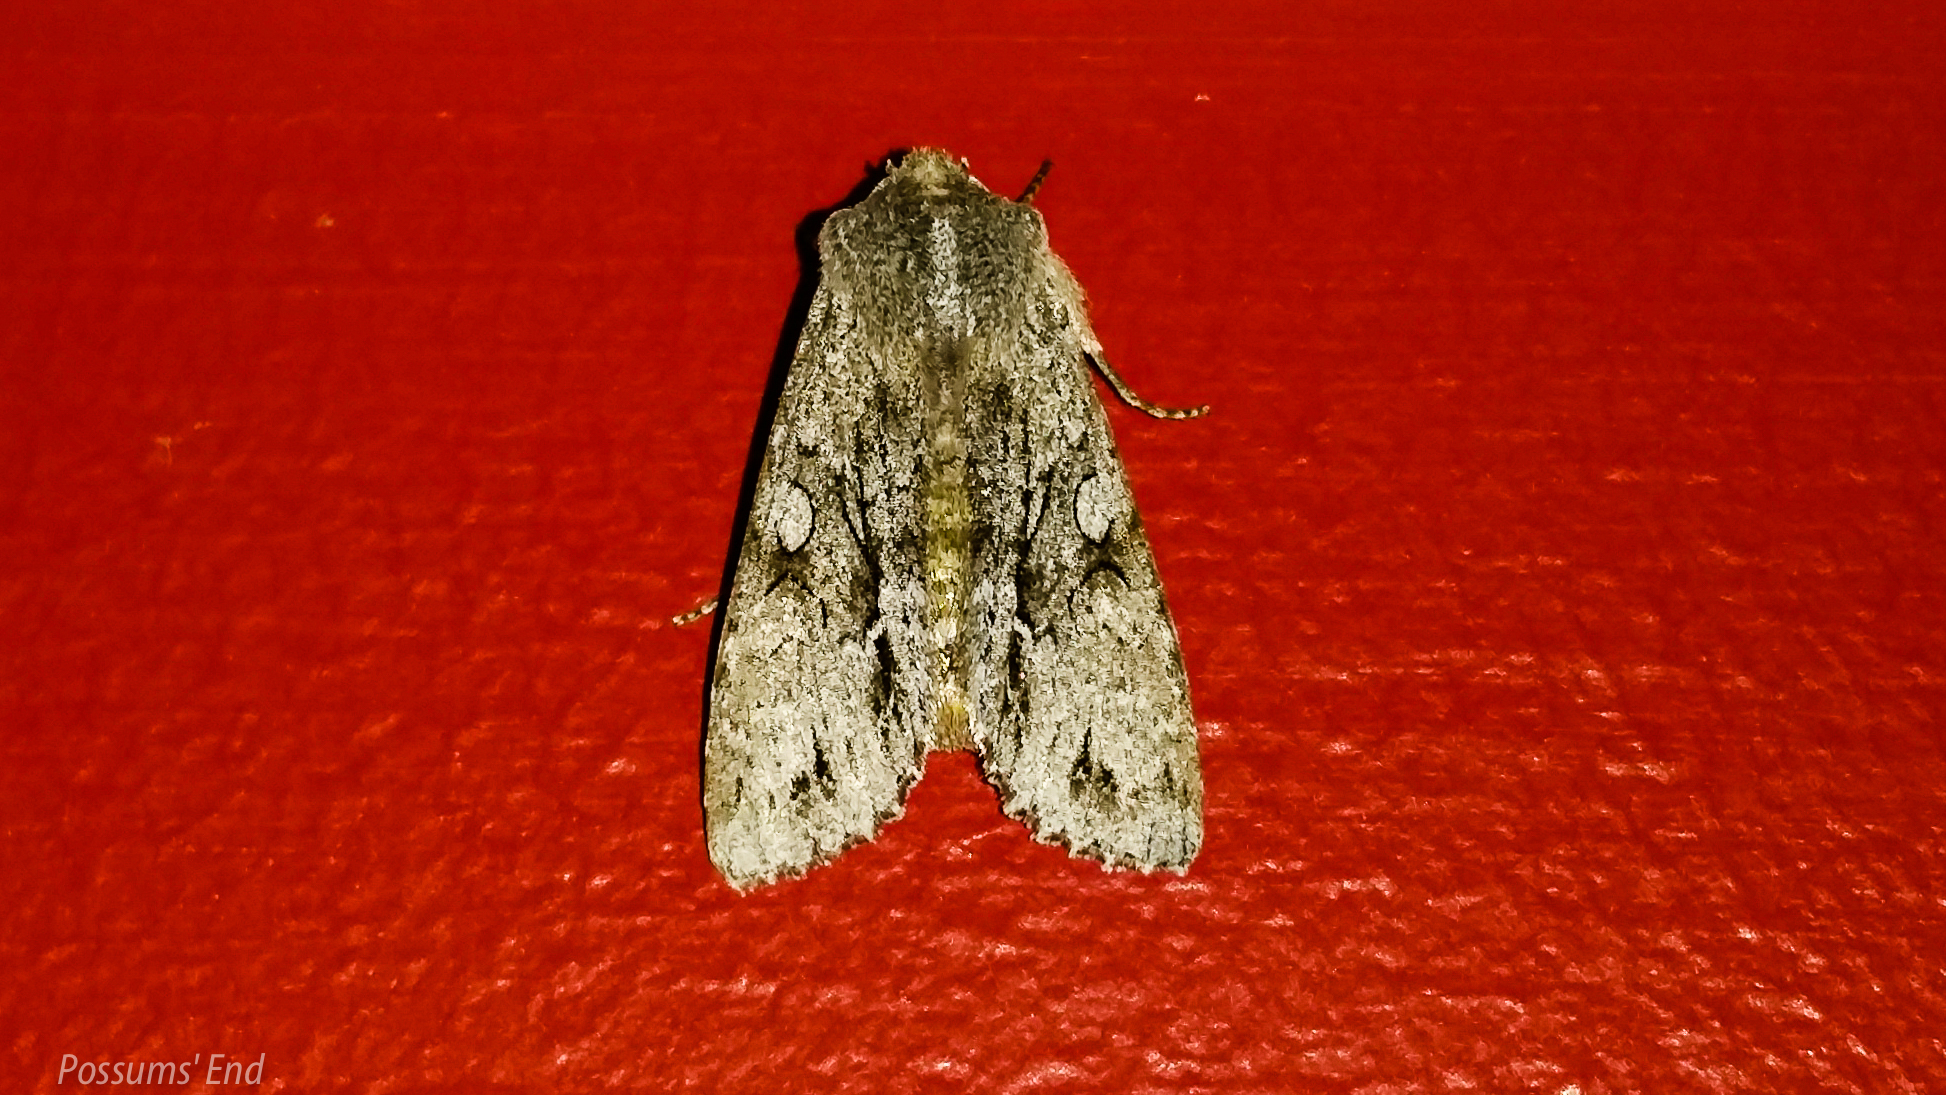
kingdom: Animalia
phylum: Arthropoda
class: Insecta
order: Lepidoptera
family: Noctuidae
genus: Ichneutica
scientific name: Ichneutica
